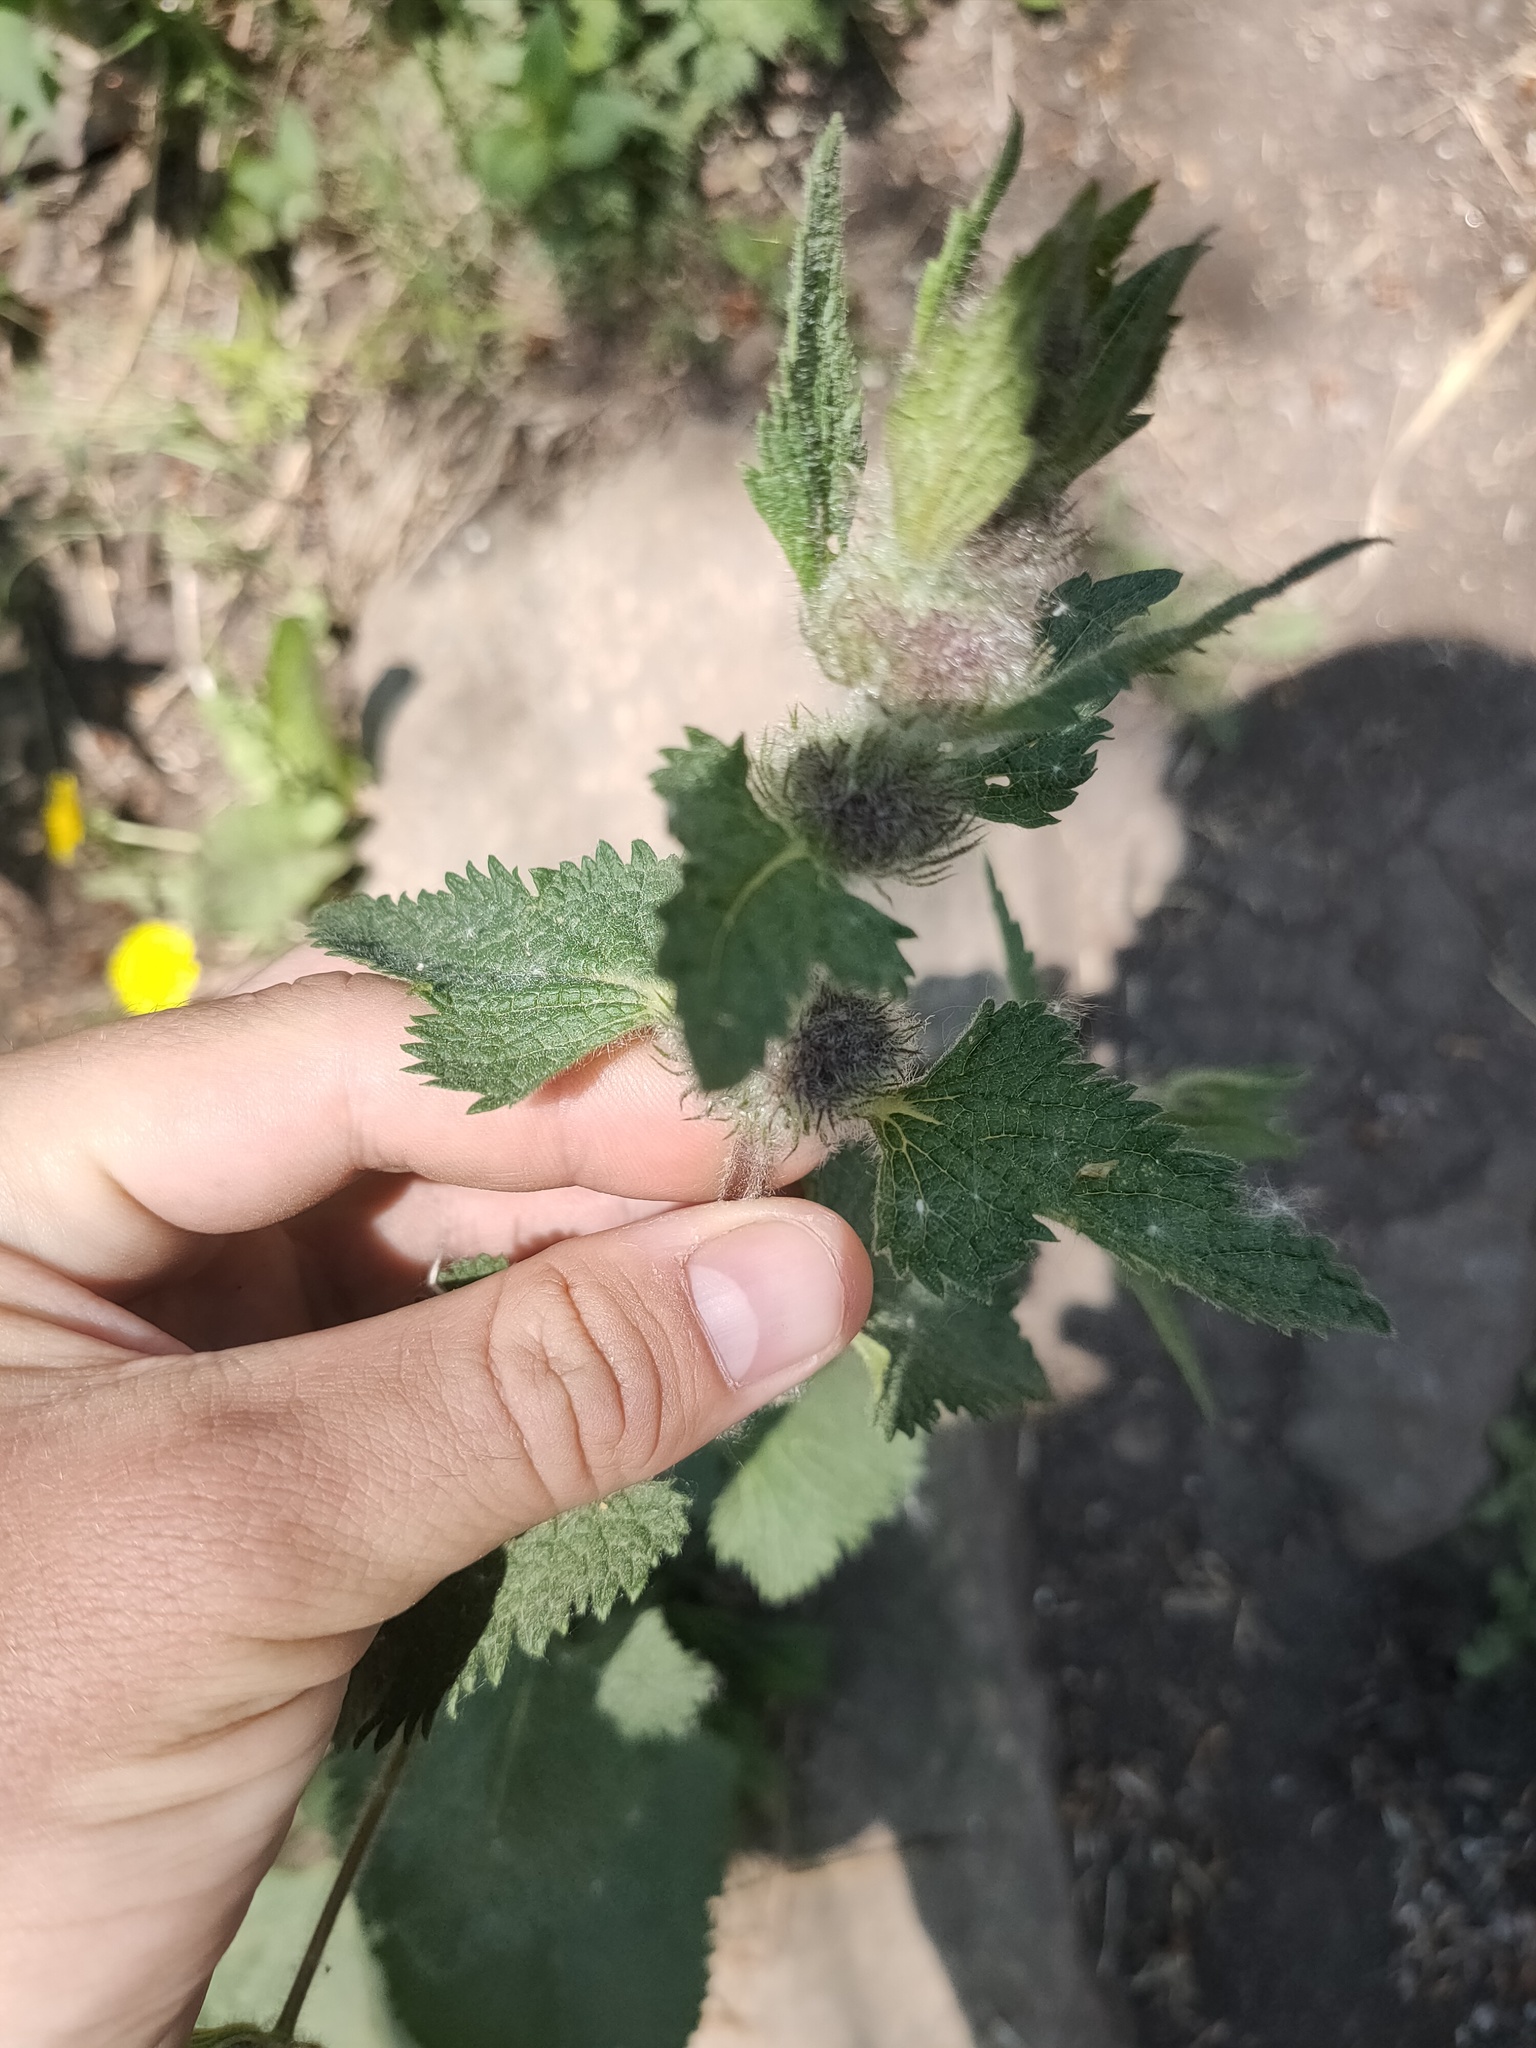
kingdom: Plantae
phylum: Tracheophyta
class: Magnoliopsida
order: Lamiales
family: Lamiaceae
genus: Phlomoides
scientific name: Phlomoides tuberosa
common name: Tuberous jerusalem sage
